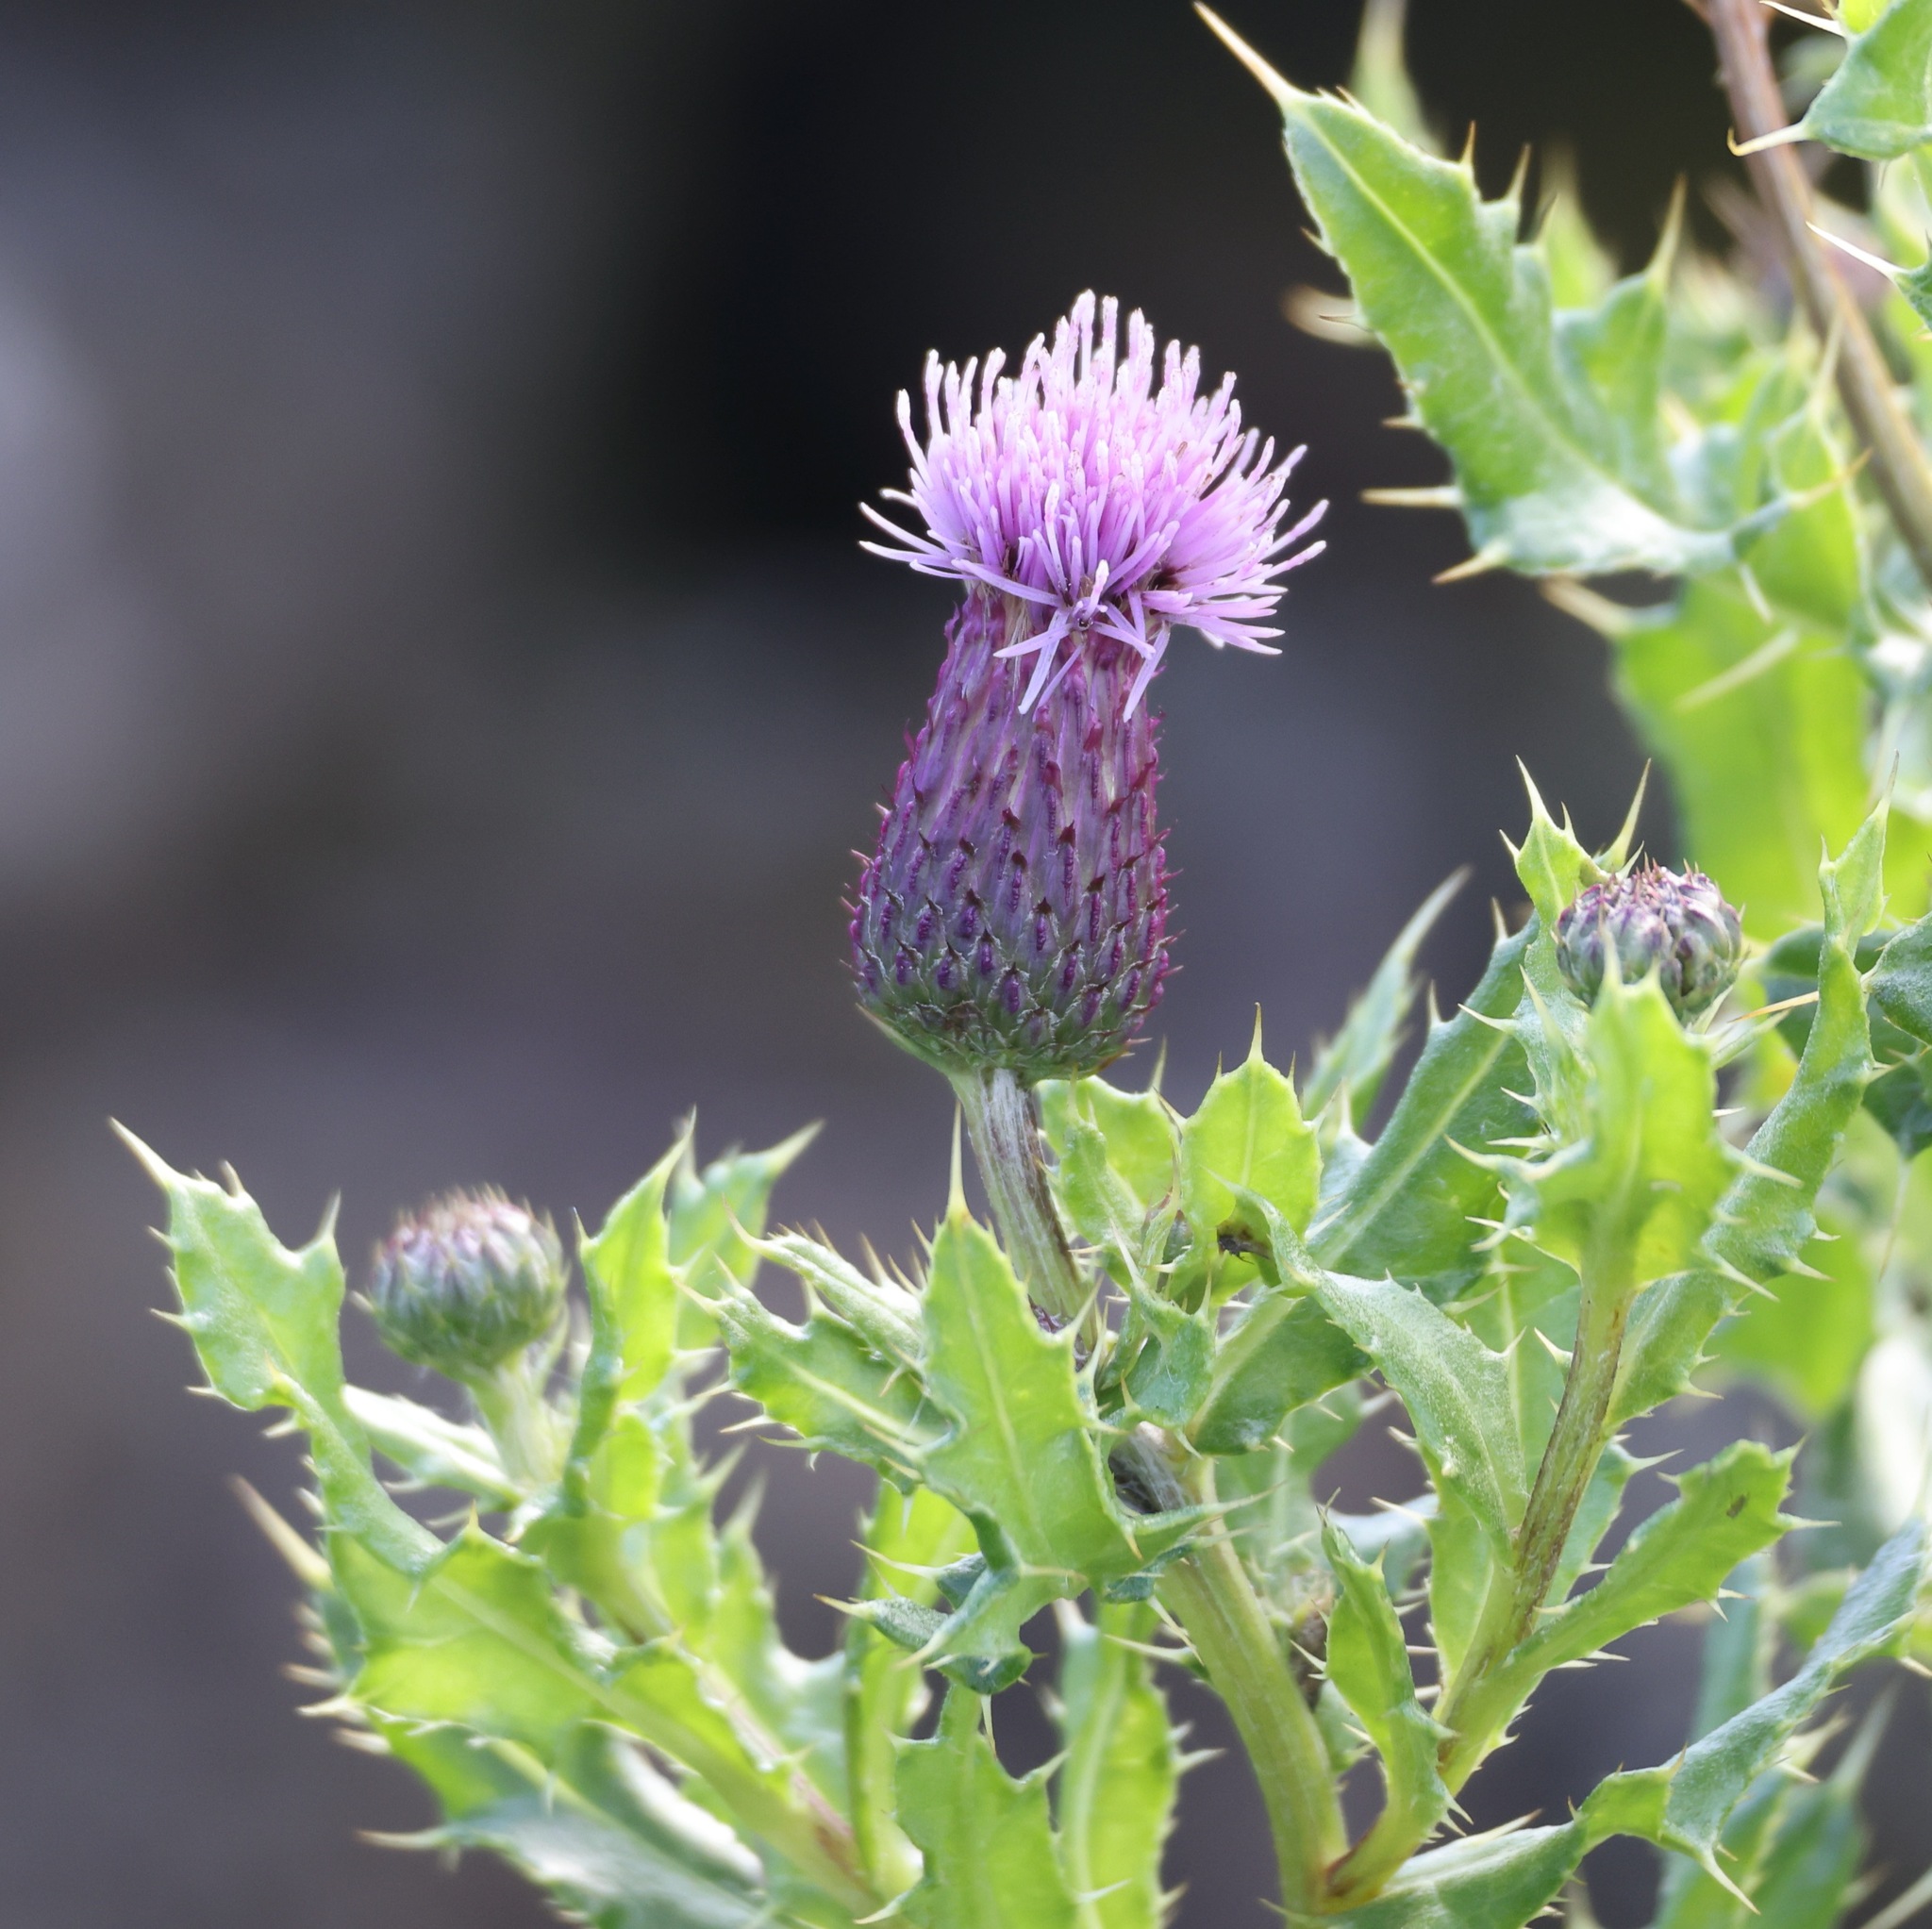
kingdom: Plantae
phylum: Tracheophyta
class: Magnoliopsida
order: Asterales
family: Asteraceae
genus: Cirsium
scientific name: Cirsium arvense
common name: Creeping thistle
